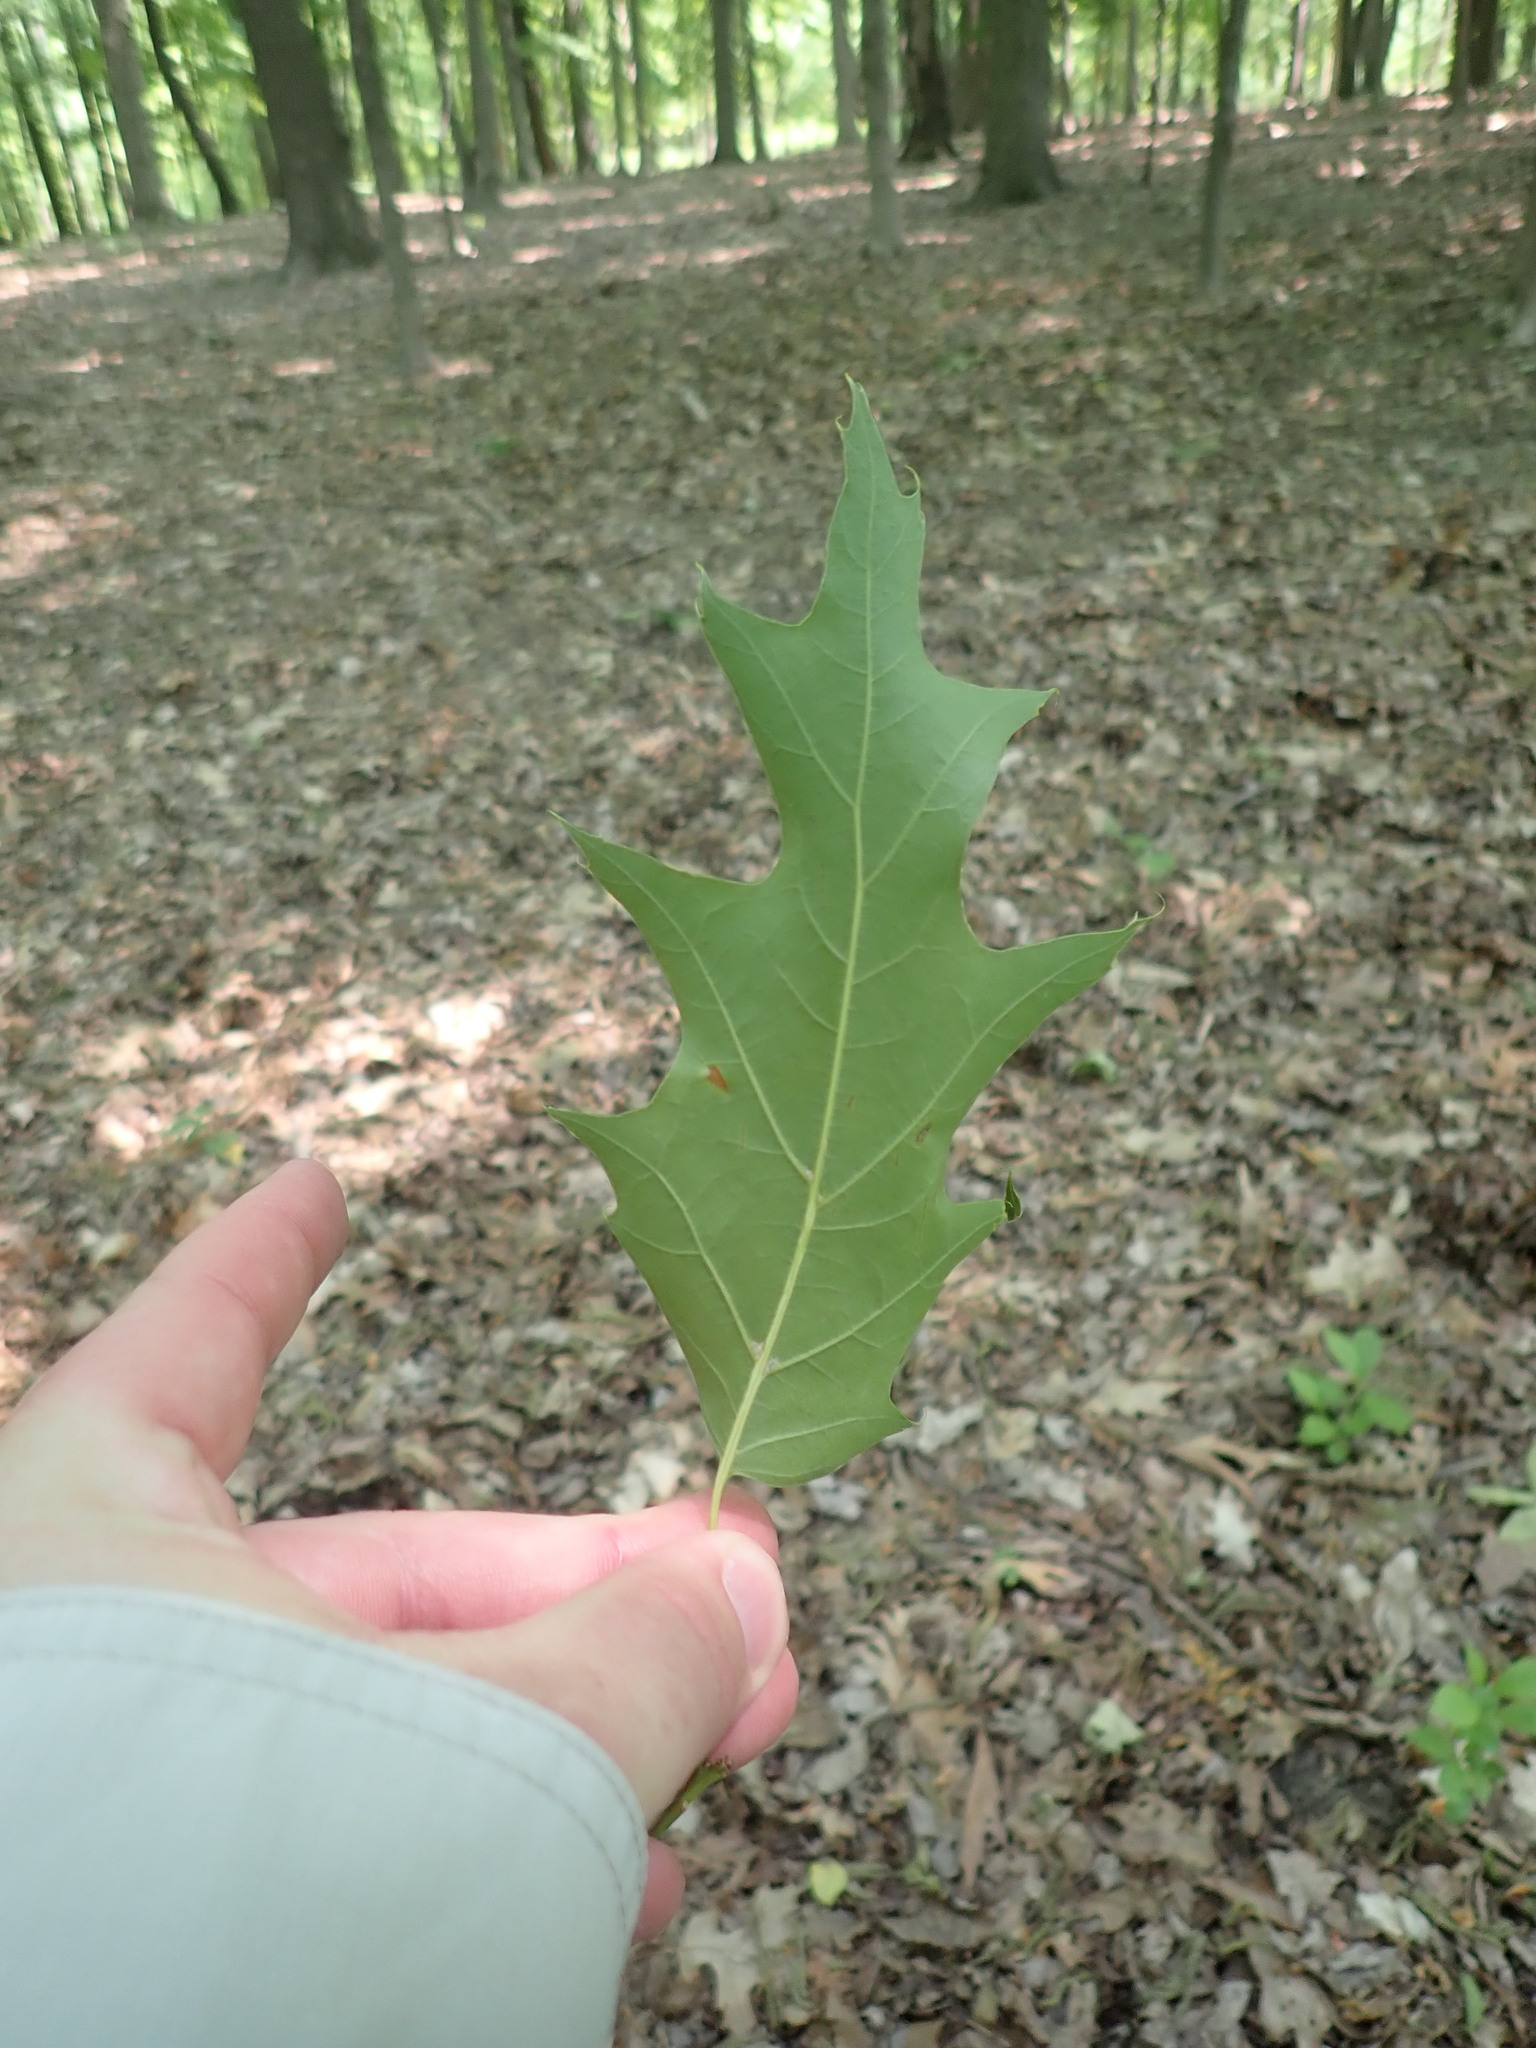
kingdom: Plantae
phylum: Tracheophyta
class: Magnoliopsida
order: Fagales
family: Fagaceae
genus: Quercus
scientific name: Quercus rubra
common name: Red oak
